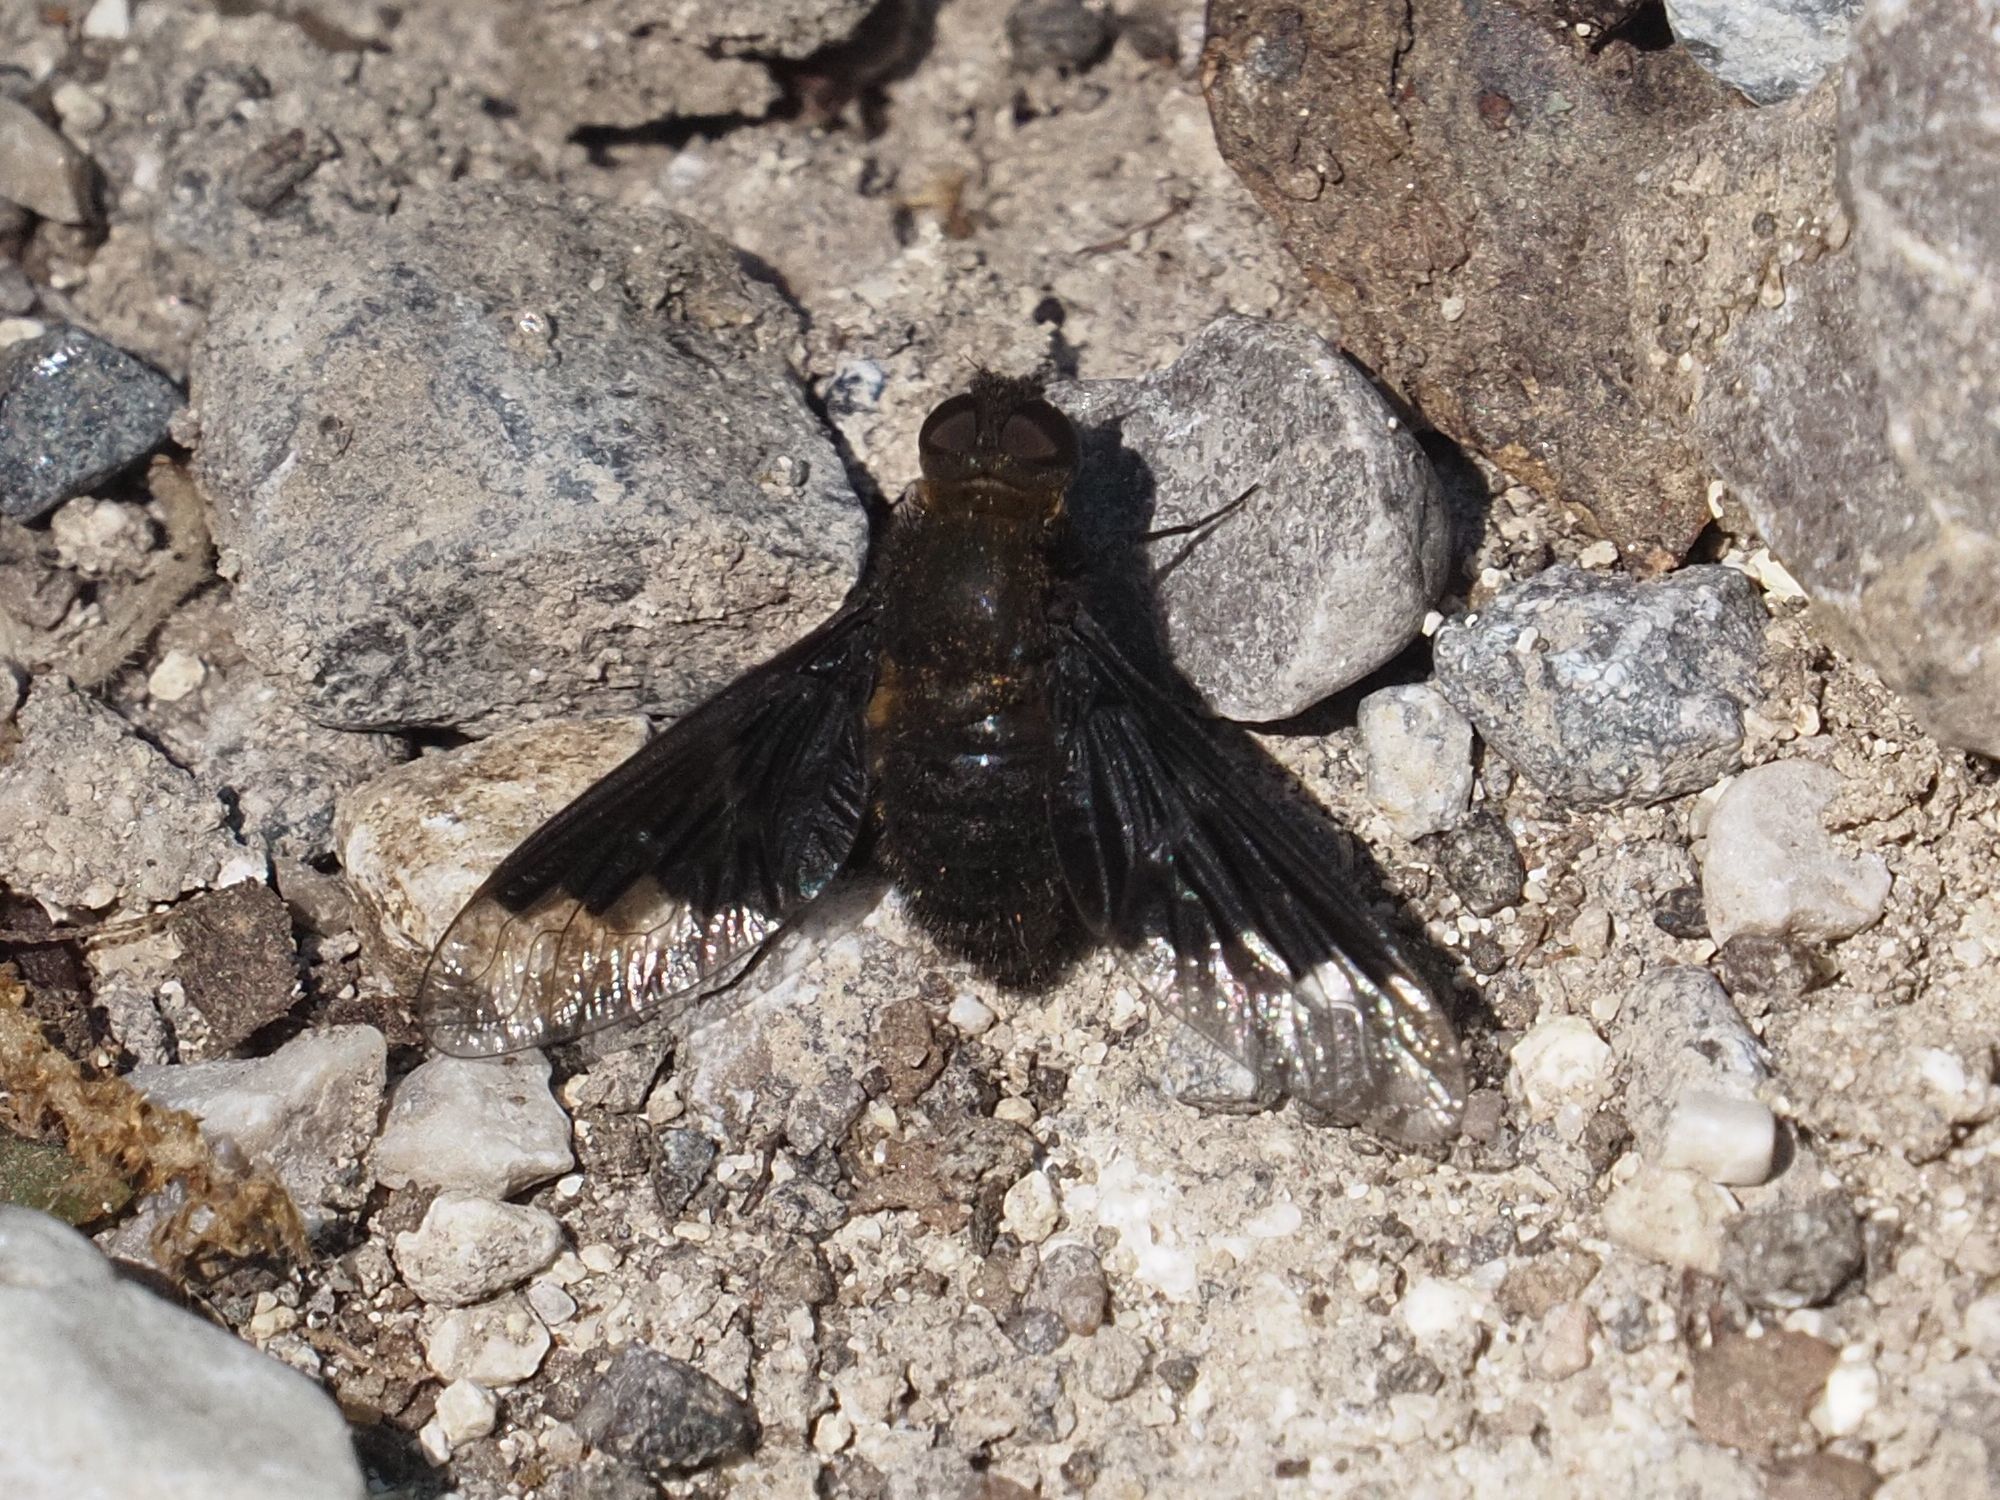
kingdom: Animalia
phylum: Arthropoda
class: Insecta
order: Diptera
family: Bombyliidae
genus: Hemipenthes
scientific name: Hemipenthes morio
